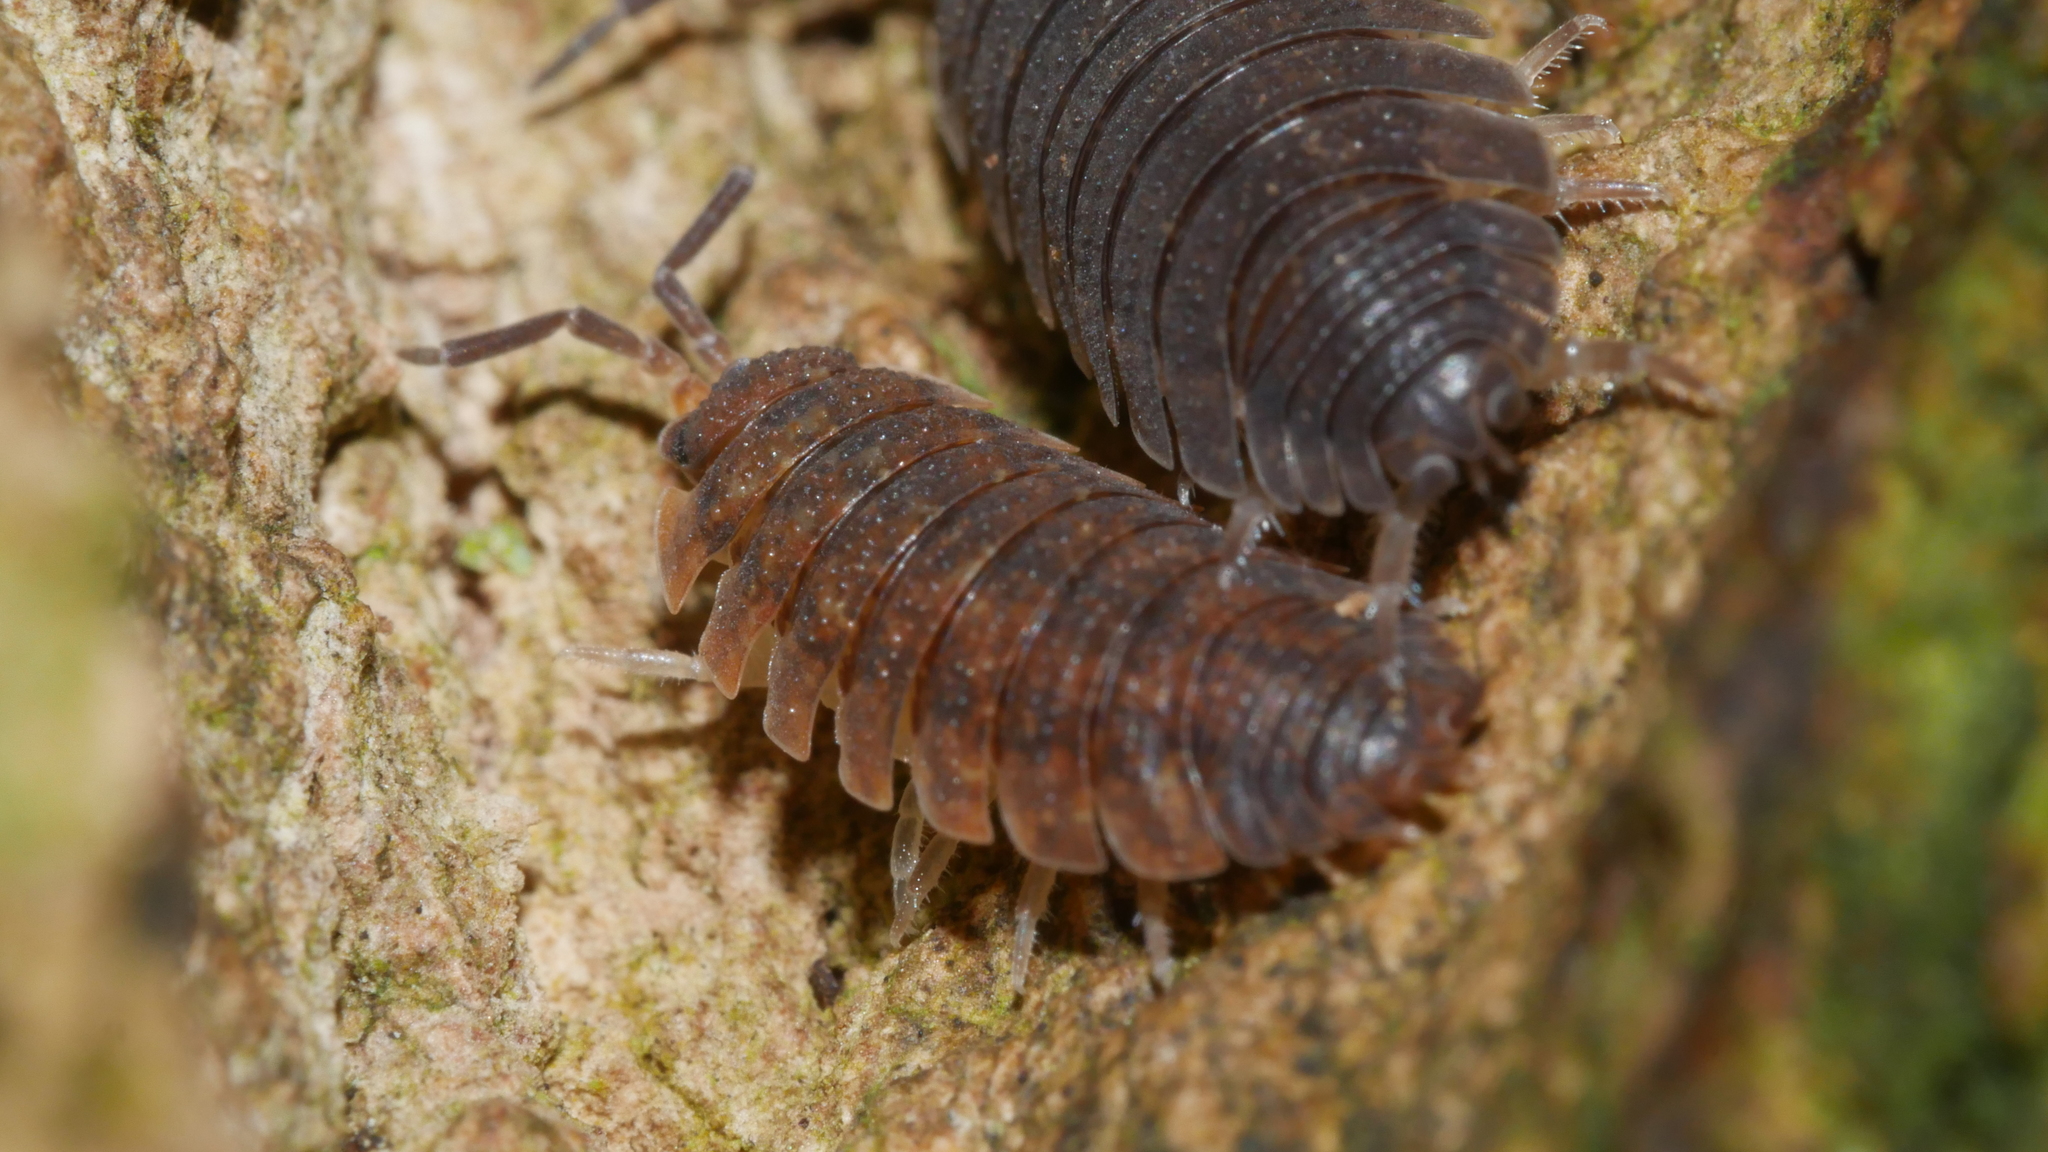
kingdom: Animalia
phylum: Arthropoda
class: Malacostraca
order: Isopoda
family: Porcellionidae
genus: Porcellio
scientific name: Porcellio scaber
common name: Common rough woodlouse
